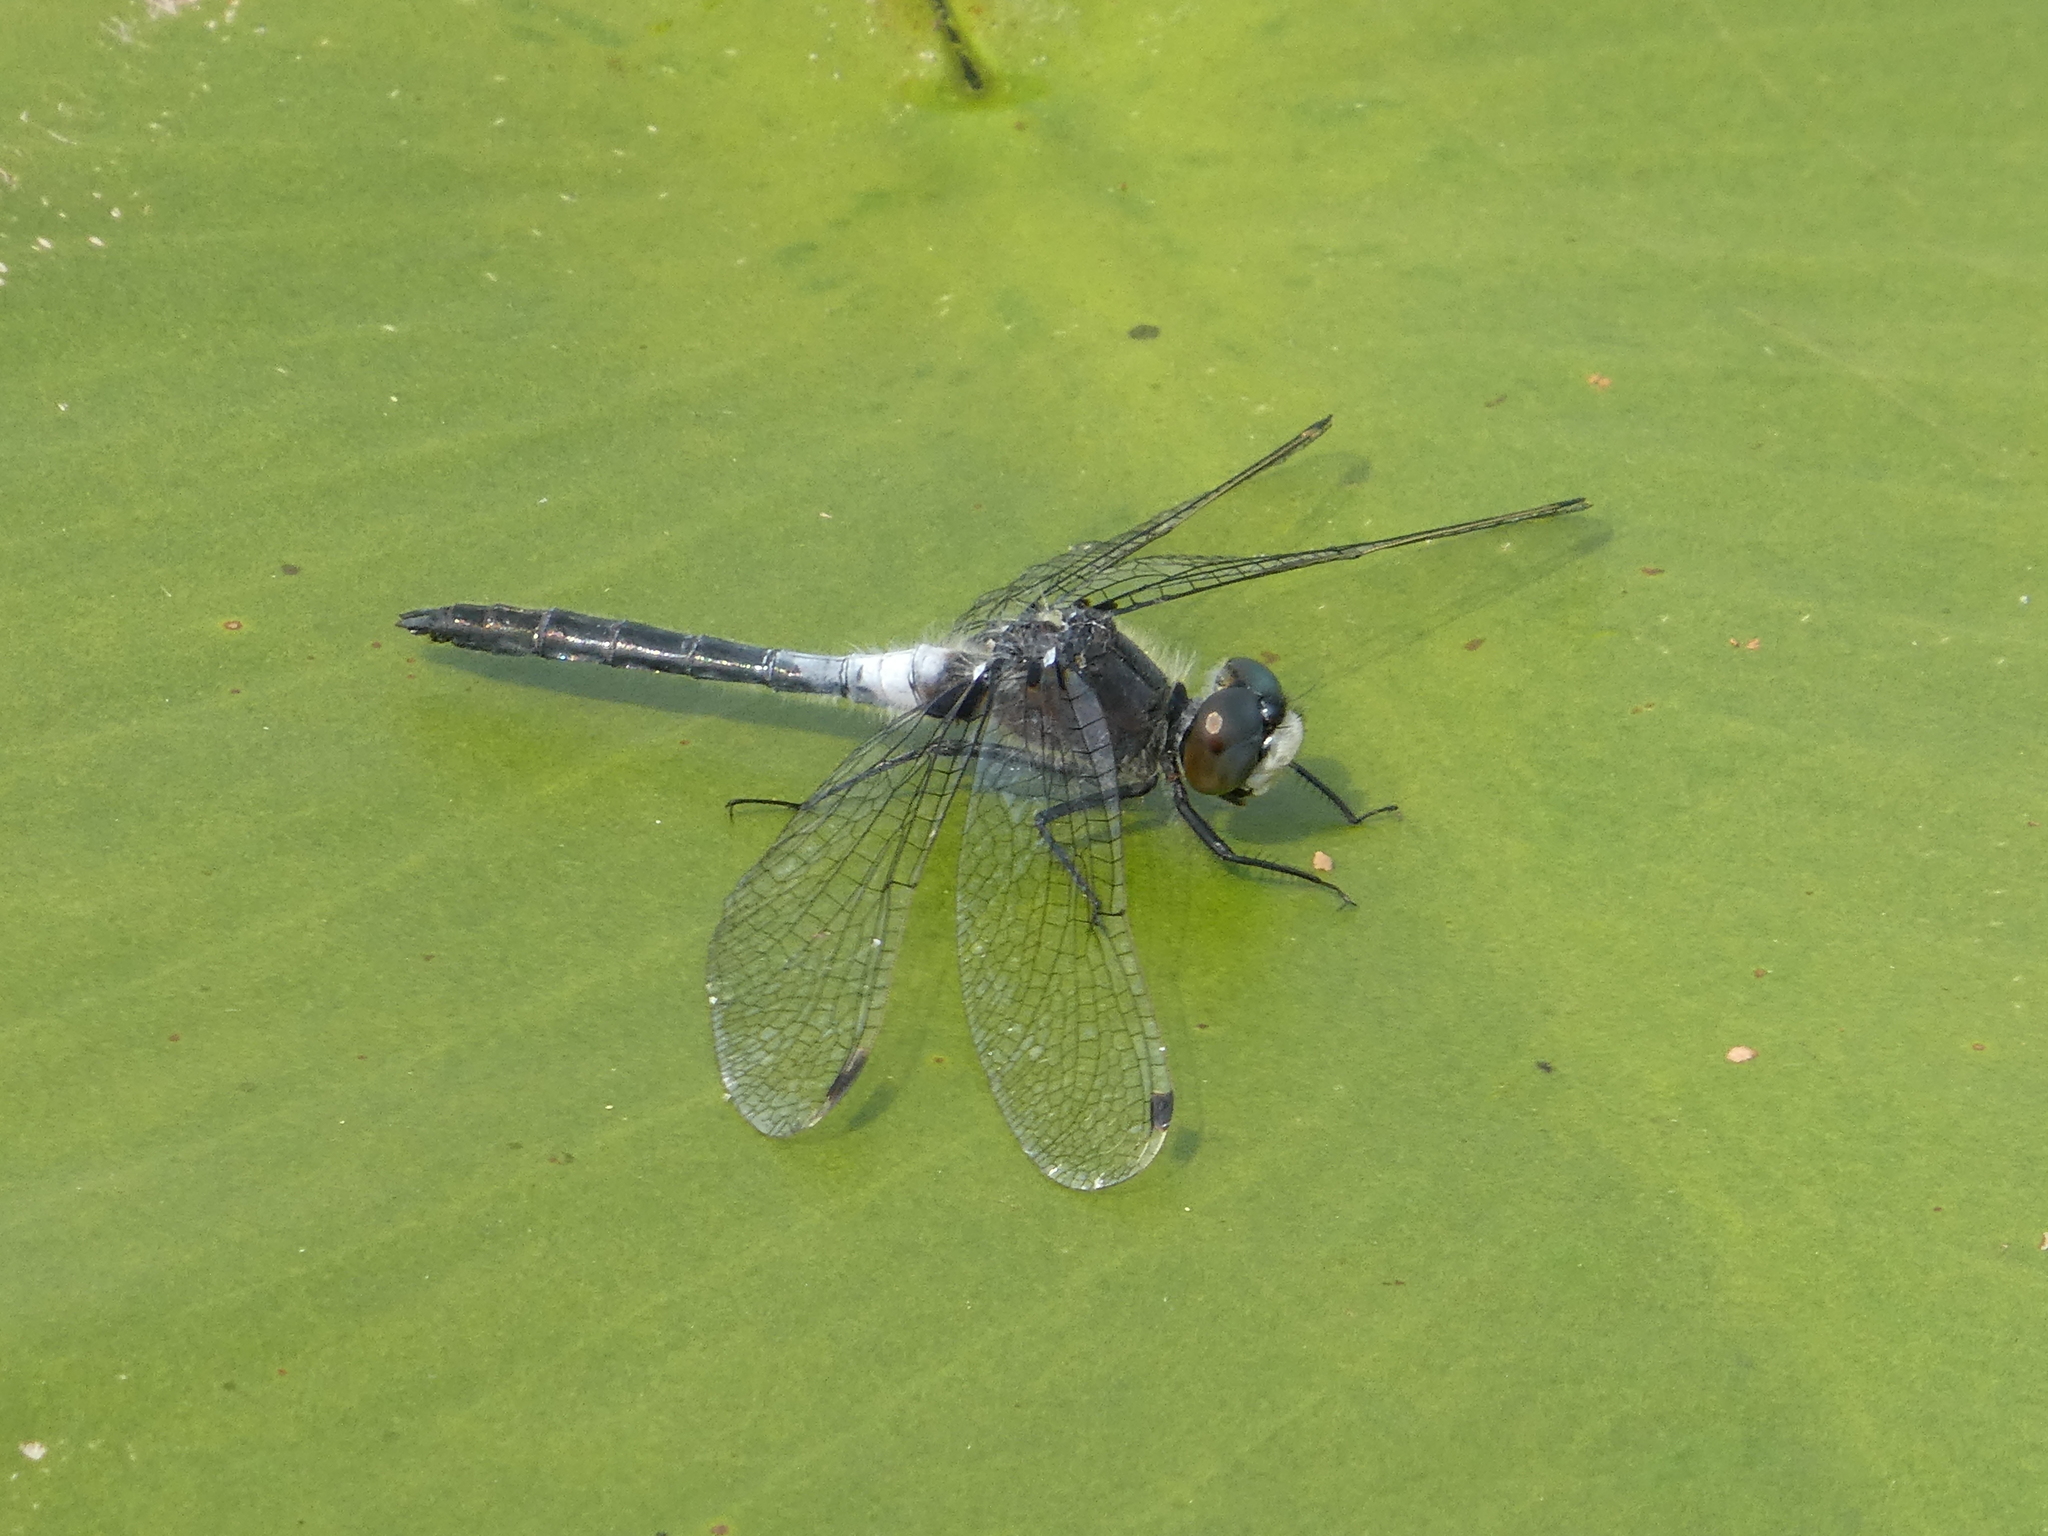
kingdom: Animalia
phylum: Arthropoda
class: Insecta
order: Odonata
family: Libellulidae
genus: Leucorrhinia
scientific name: Leucorrhinia frigida
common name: Frosted whiteface
